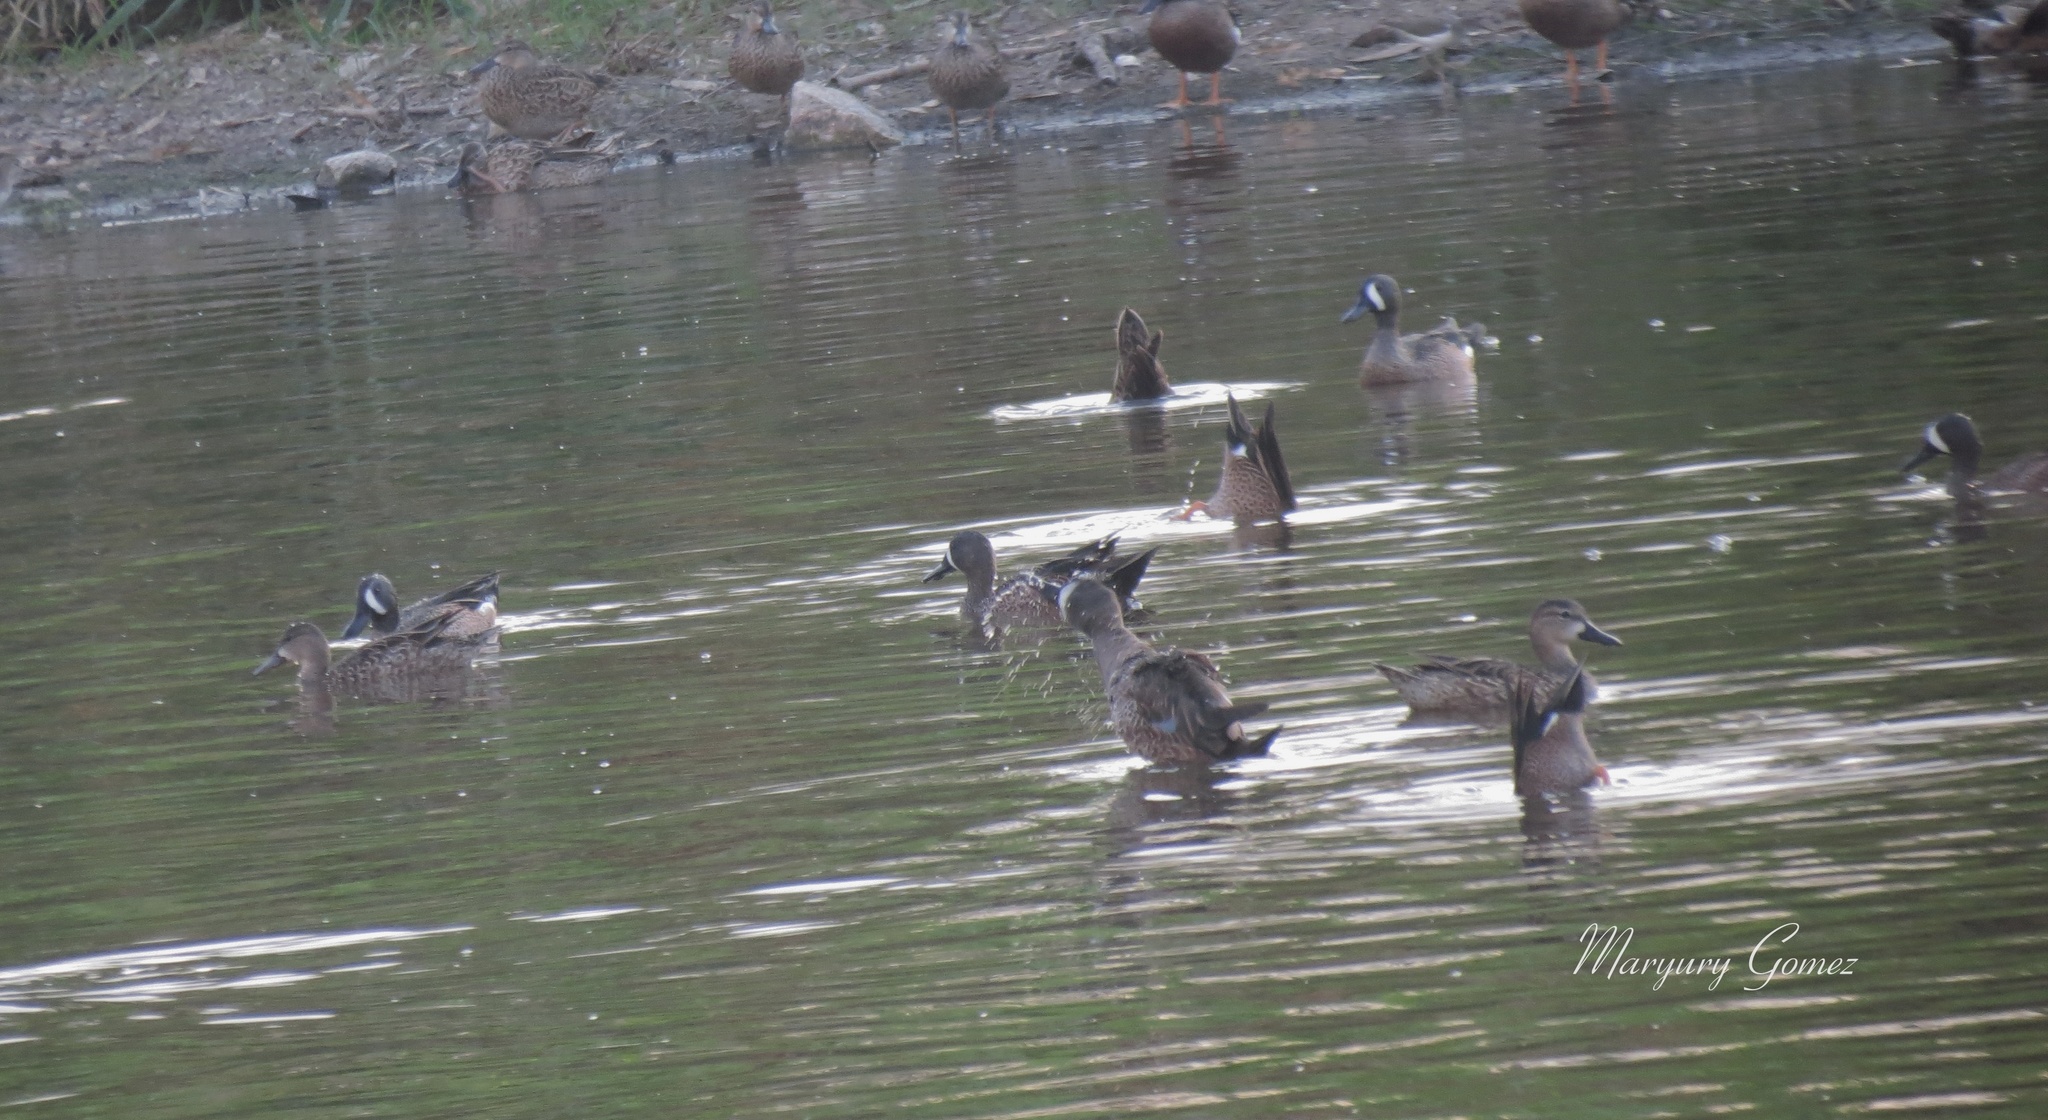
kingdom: Animalia
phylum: Chordata
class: Aves
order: Anseriformes
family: Anatidae
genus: Spatula
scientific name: Spatula discors
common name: Blue-winged teal
